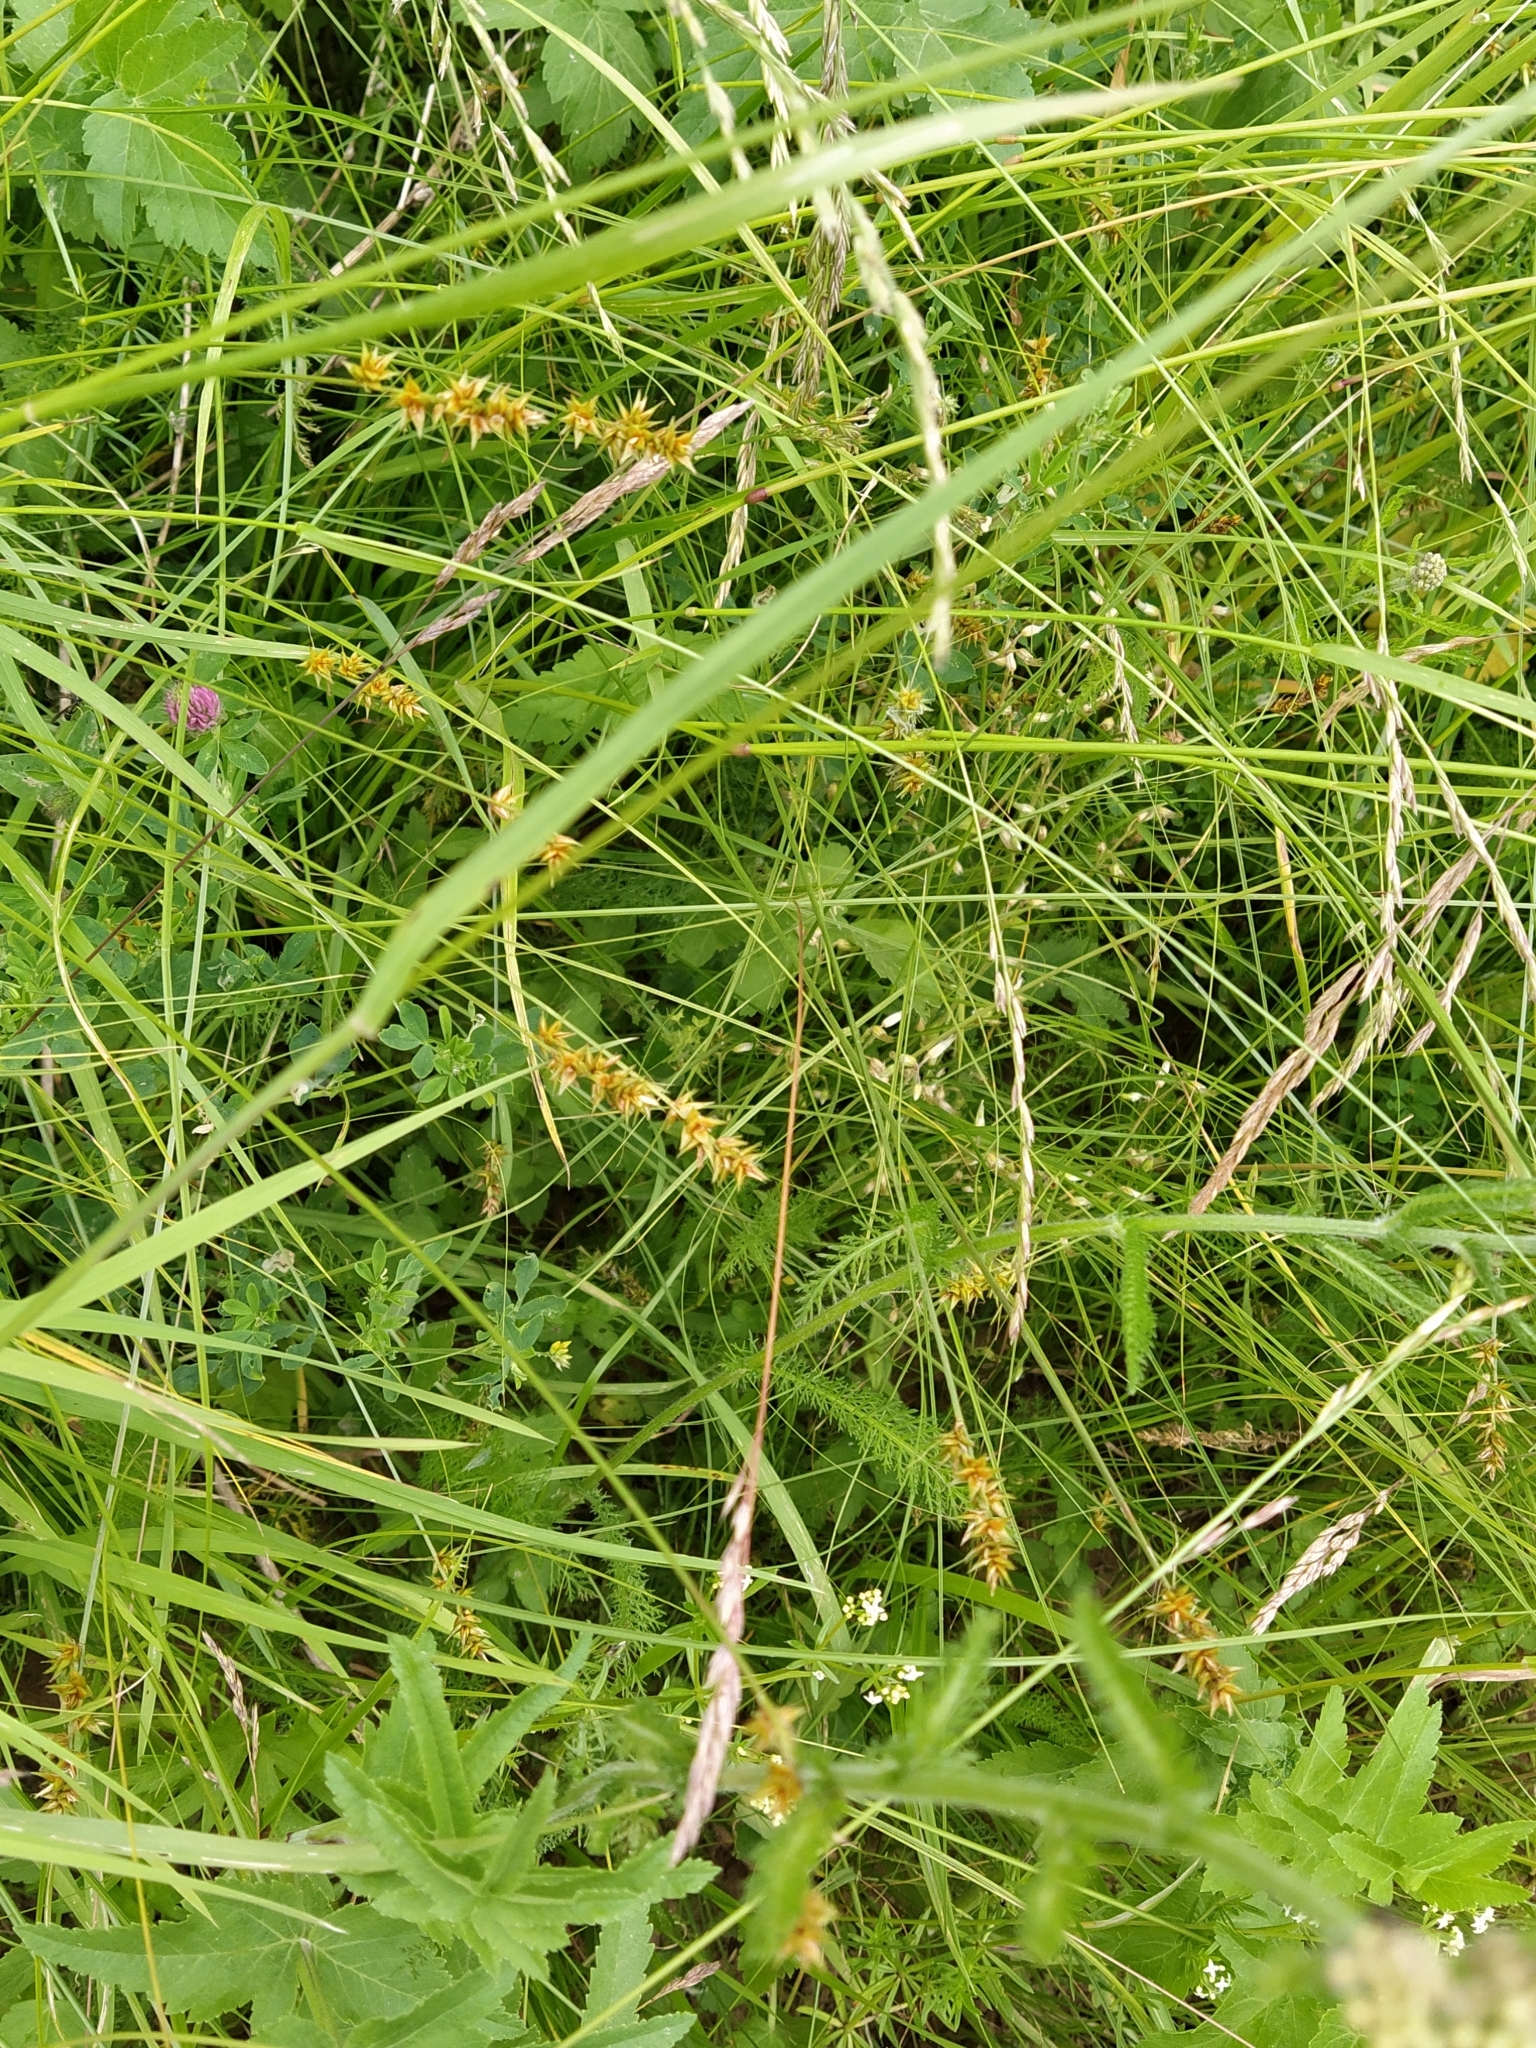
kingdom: Plantae
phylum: Tracheophyta
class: Liliopsida
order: Poales
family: Cyperaceae
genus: Carex
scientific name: Carex spicata
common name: Spiked sedge
